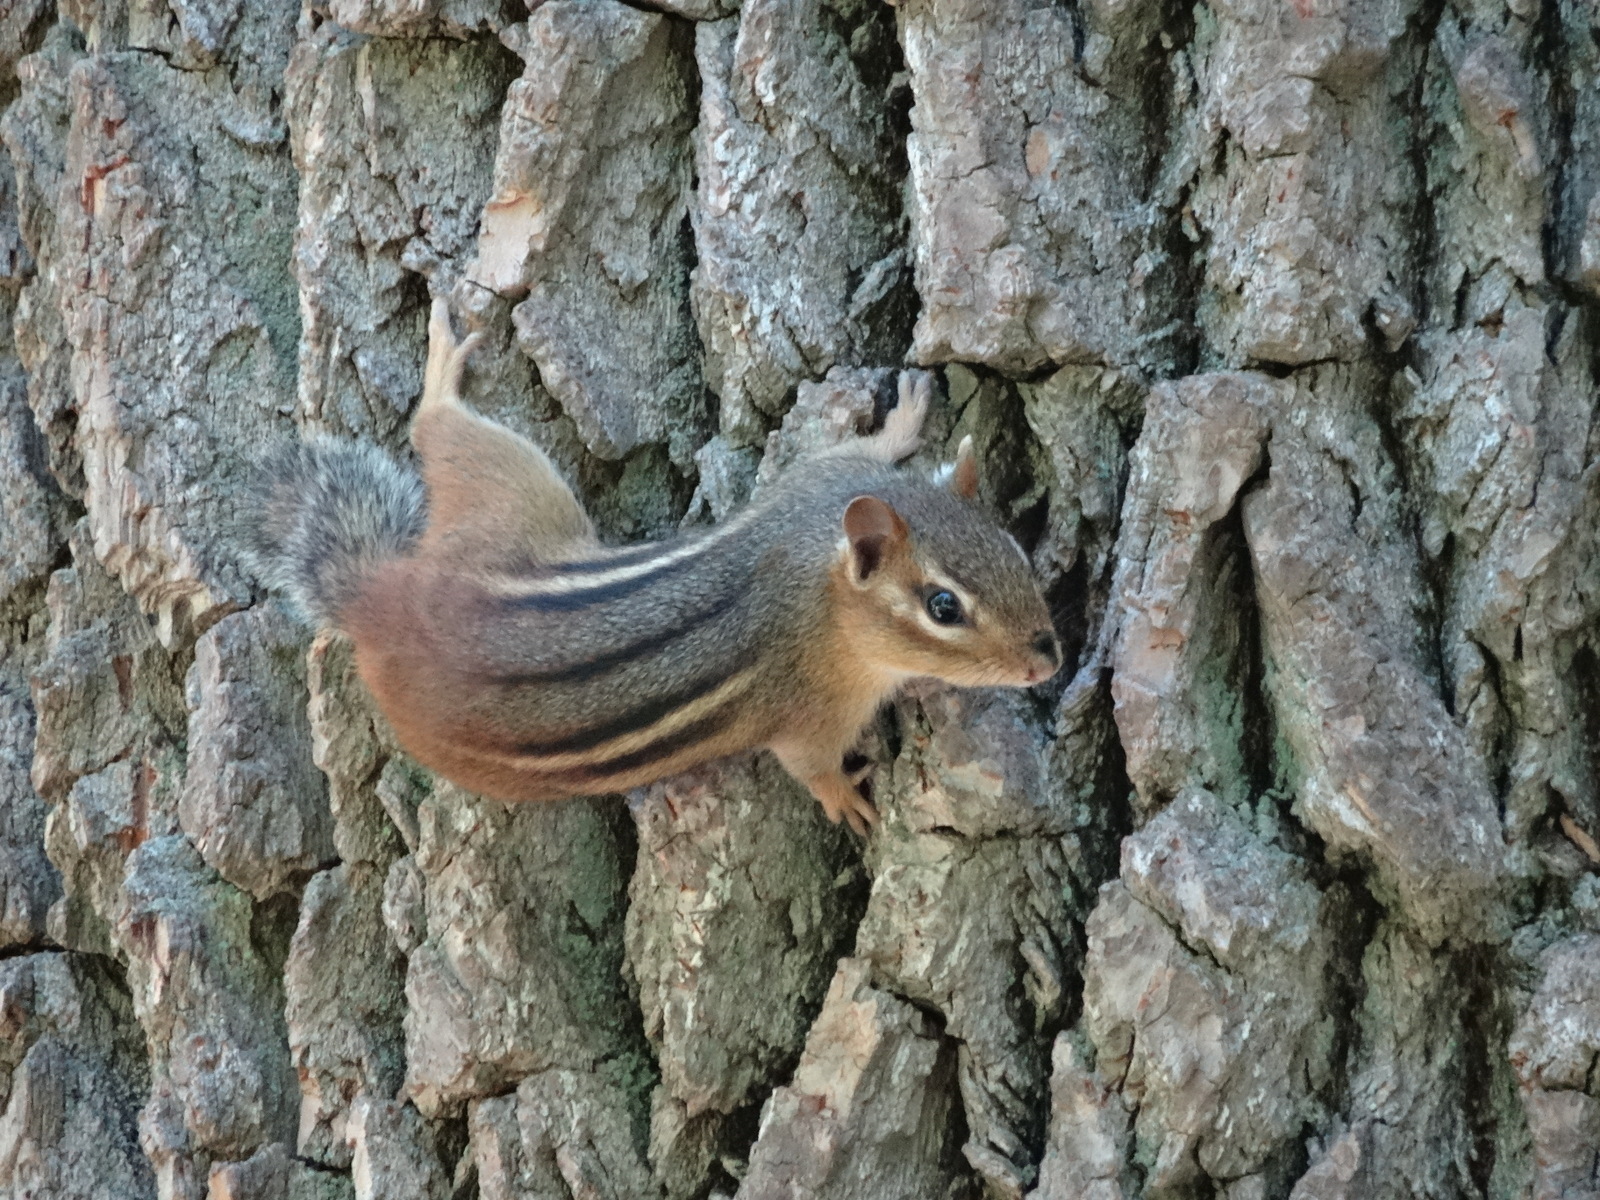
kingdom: Animalia
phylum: Chordata
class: Mammalia
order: Rodentia
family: Sciuridae
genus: Tamias
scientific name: Tamias striatus
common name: Eastern chipmunk
